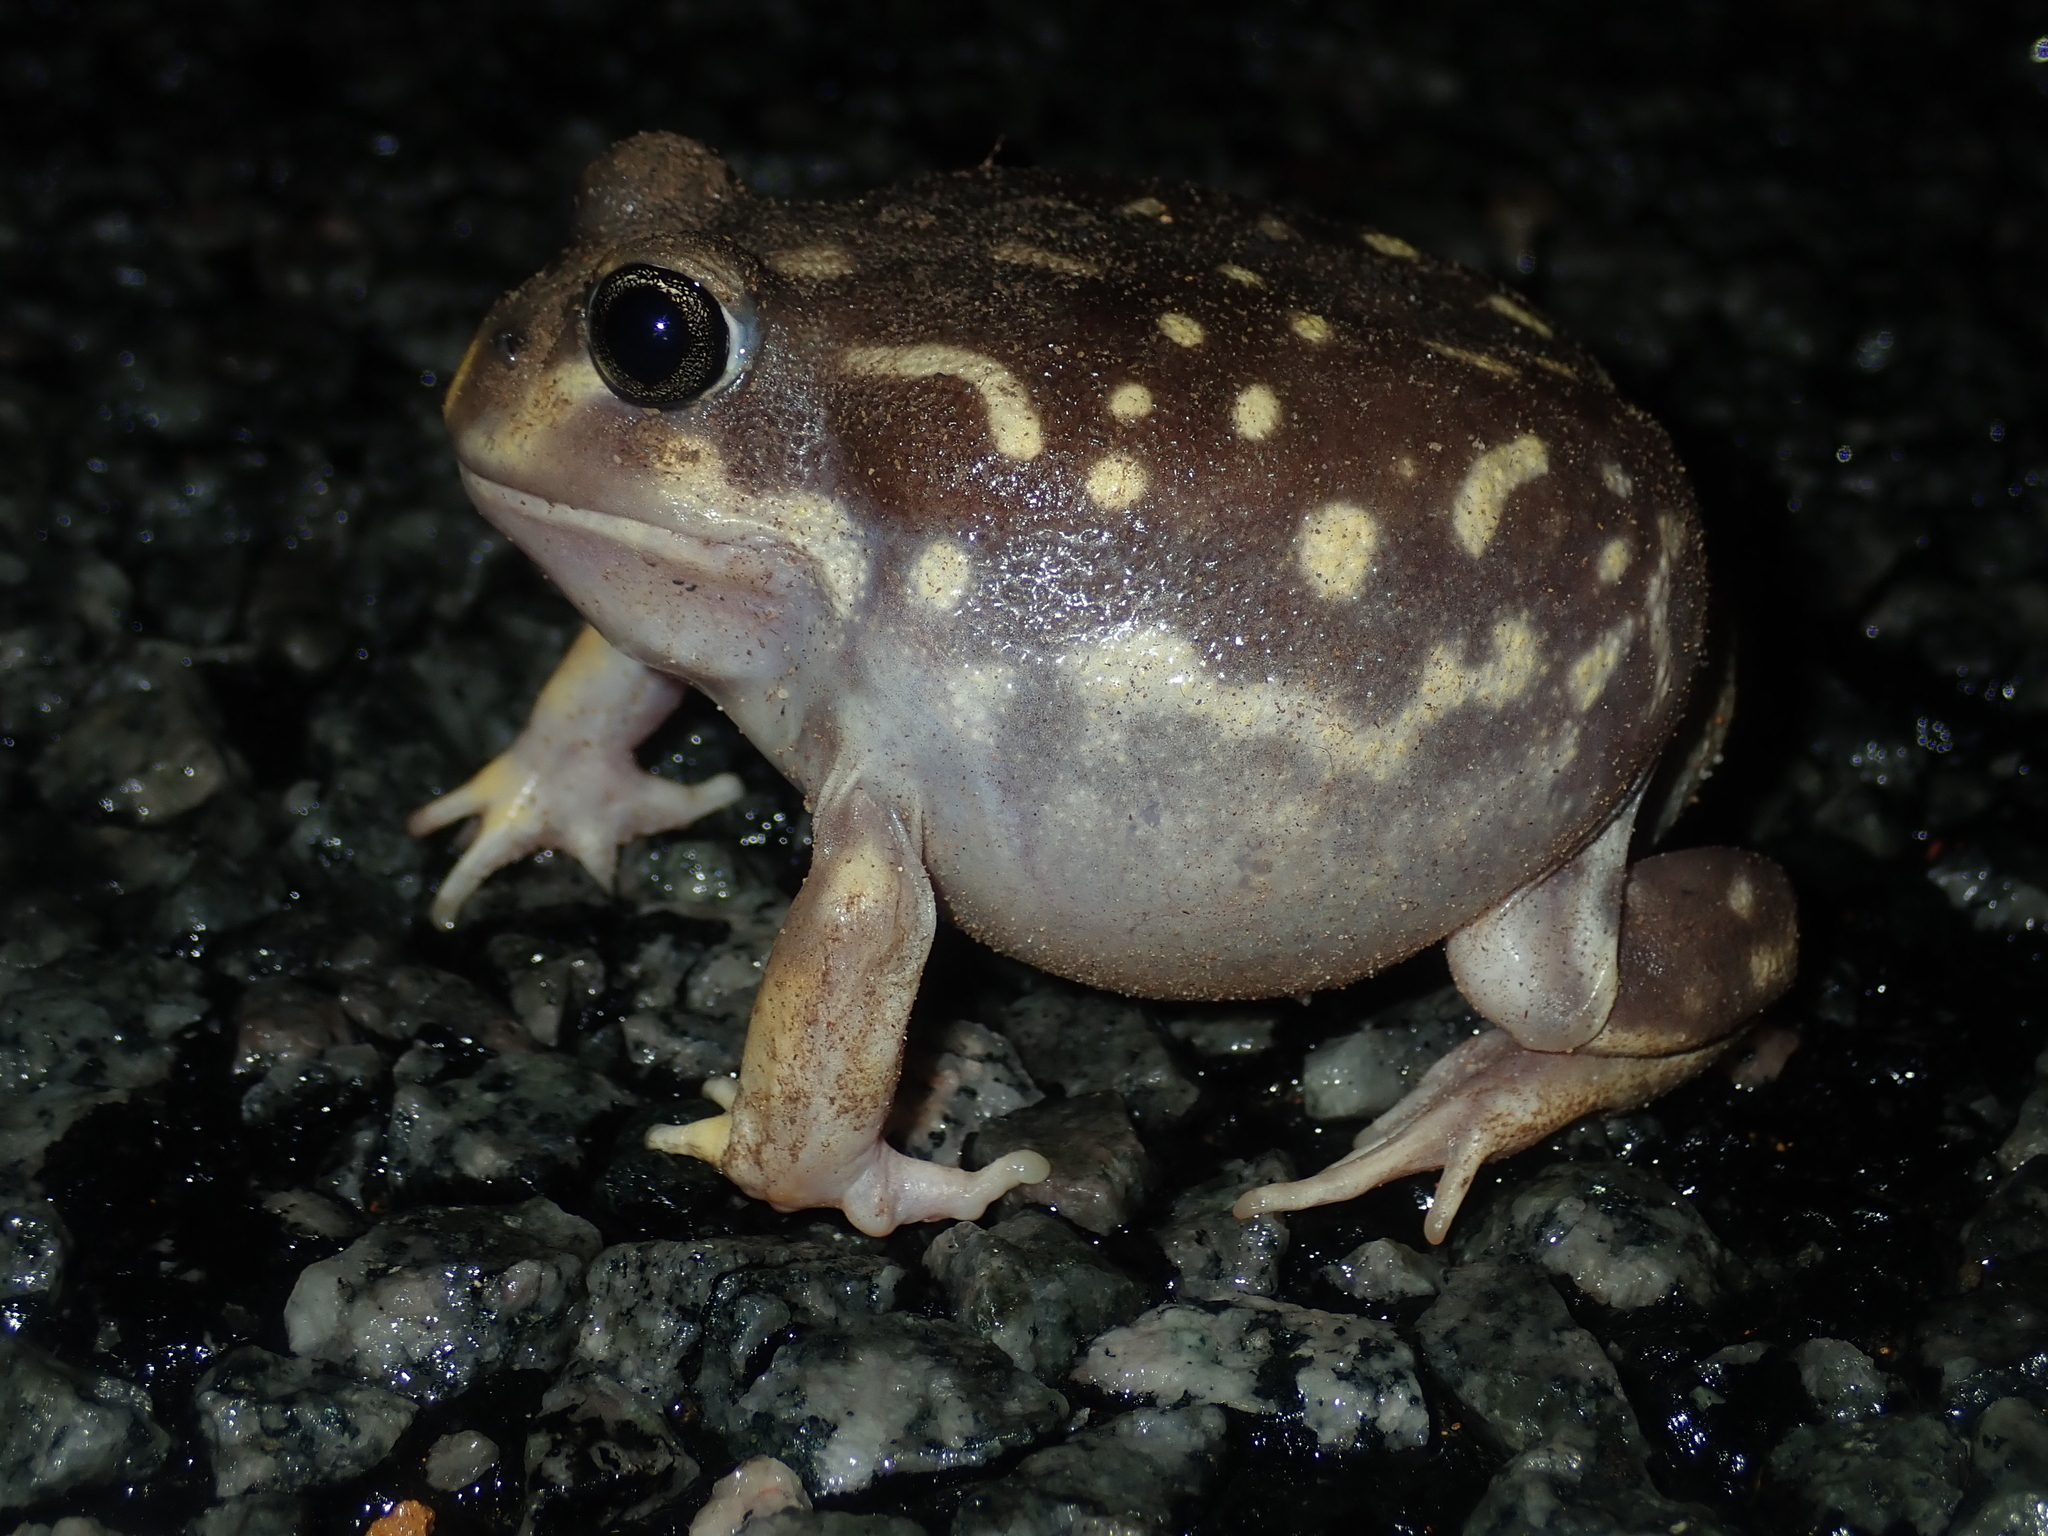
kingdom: Animalia
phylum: Chordata
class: Amphibia
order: Anura
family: Limnodynastidae
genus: Heleioporus
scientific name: Heleioporus albopunctatus
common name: Western spotted frog
